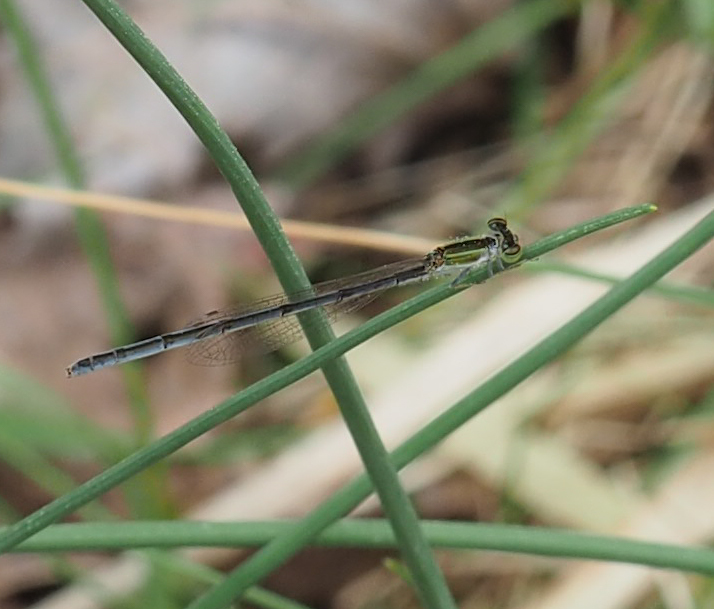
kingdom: Animalia
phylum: Arthropoda
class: Insecta
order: Odonata
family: Coenagrionidae
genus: Ischnura
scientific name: Ischnura hastata
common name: Citrine forktail
